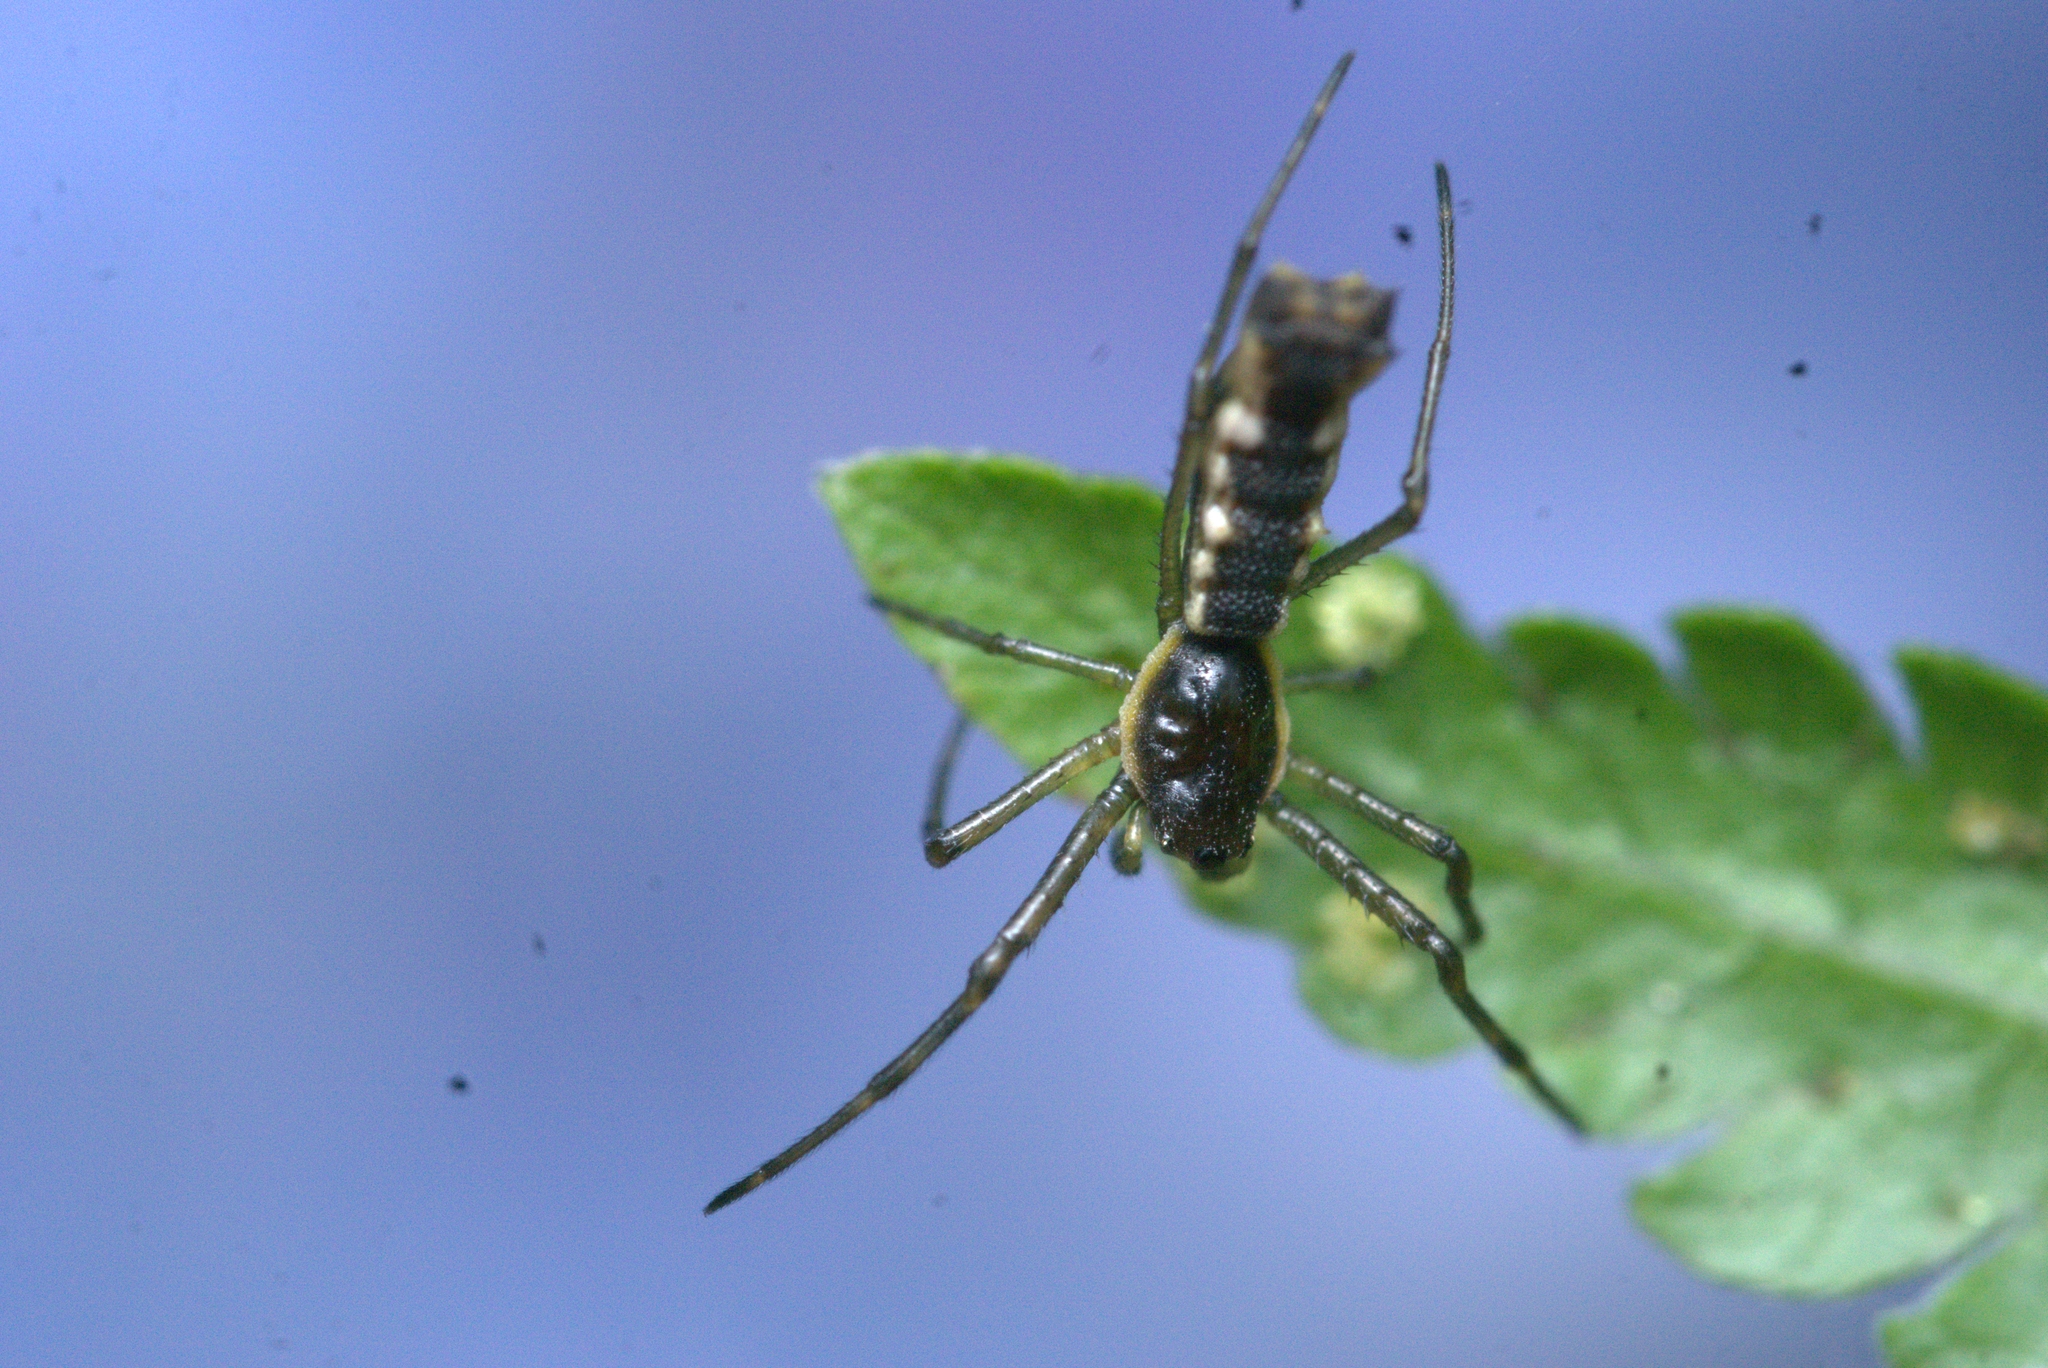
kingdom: Animalia
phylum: Arthropoda
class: Arachnida
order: Araneae
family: Araneidae
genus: Micrathena
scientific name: Micrathena nigrichelis
